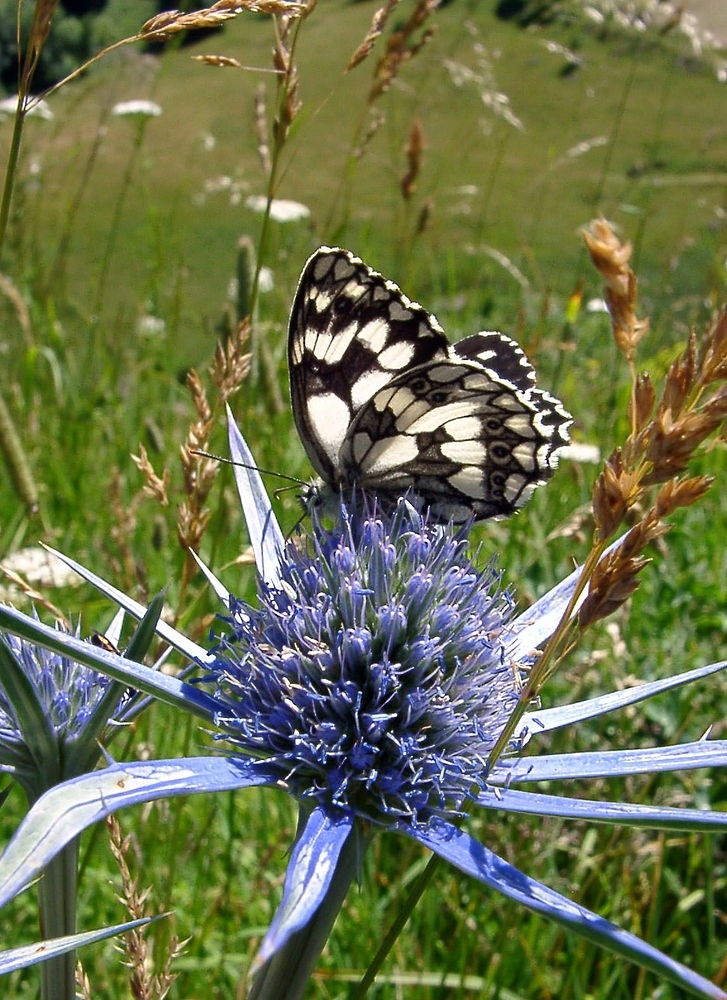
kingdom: Animalia
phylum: Arthropoda
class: Insecta
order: Lepidoptera
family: Nymphalidae
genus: Melanargia
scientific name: Melanargia galathea
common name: Marbled white
